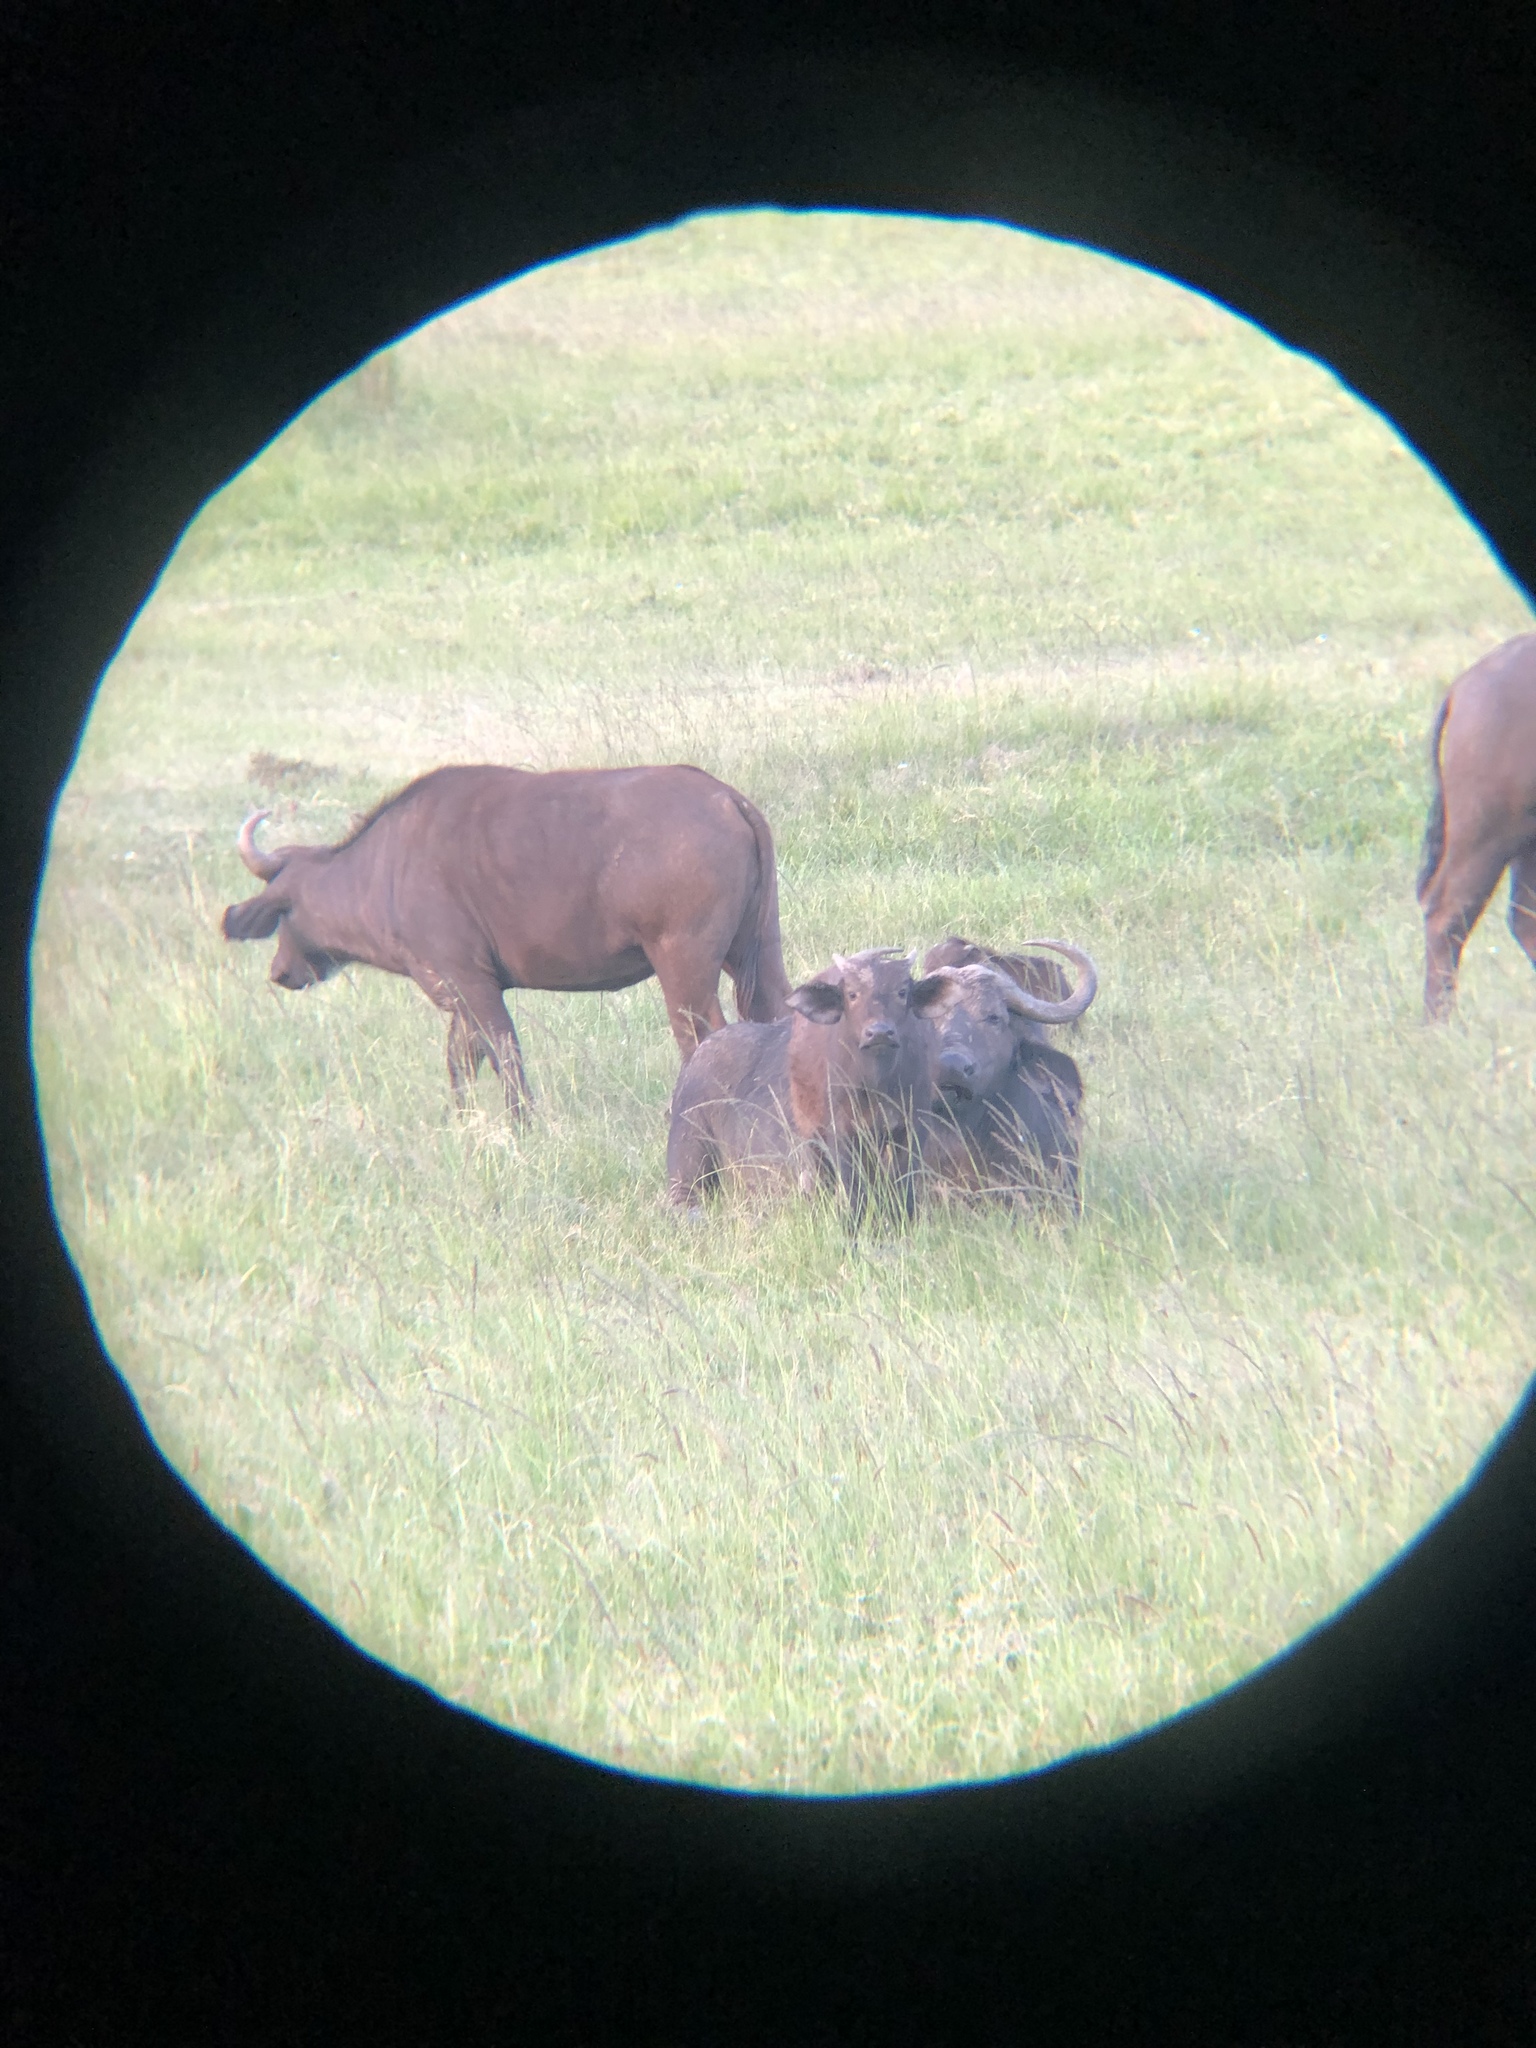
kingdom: Animalia
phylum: Chordata
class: Mammalia
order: Artiodactyla
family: Bovidae
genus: Syncerus
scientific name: Syncerus caffer
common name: African buffalo
